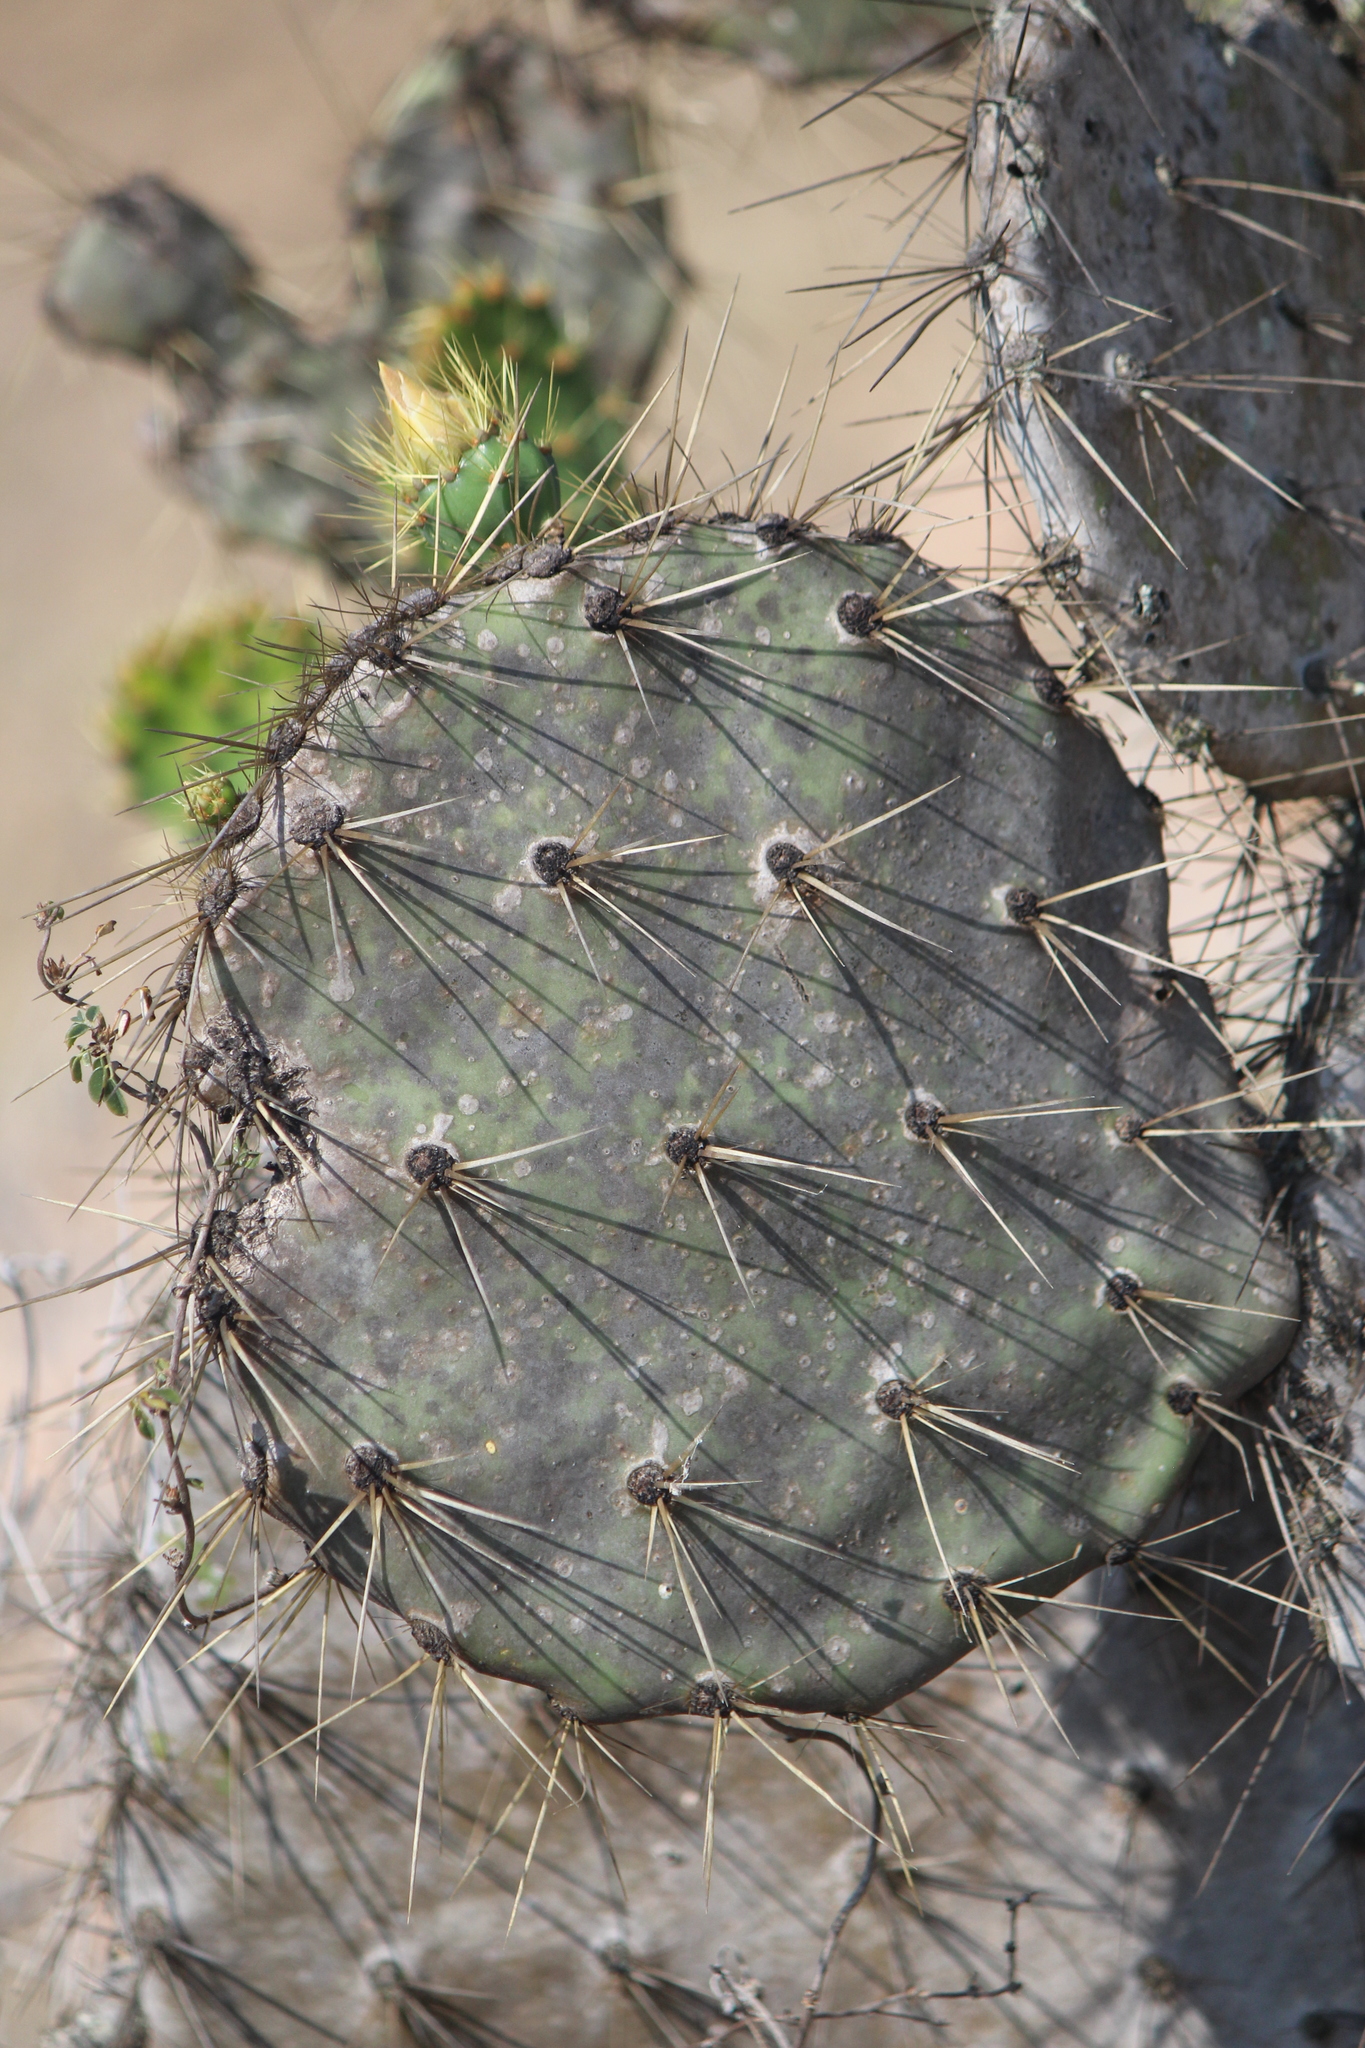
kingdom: Plantae
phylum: Tracheophyta
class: Magnoliopsida
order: Caryophyllales
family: Cactaceae
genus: Opuntia
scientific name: Opuntia engelmannii
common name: Cactus-apple
